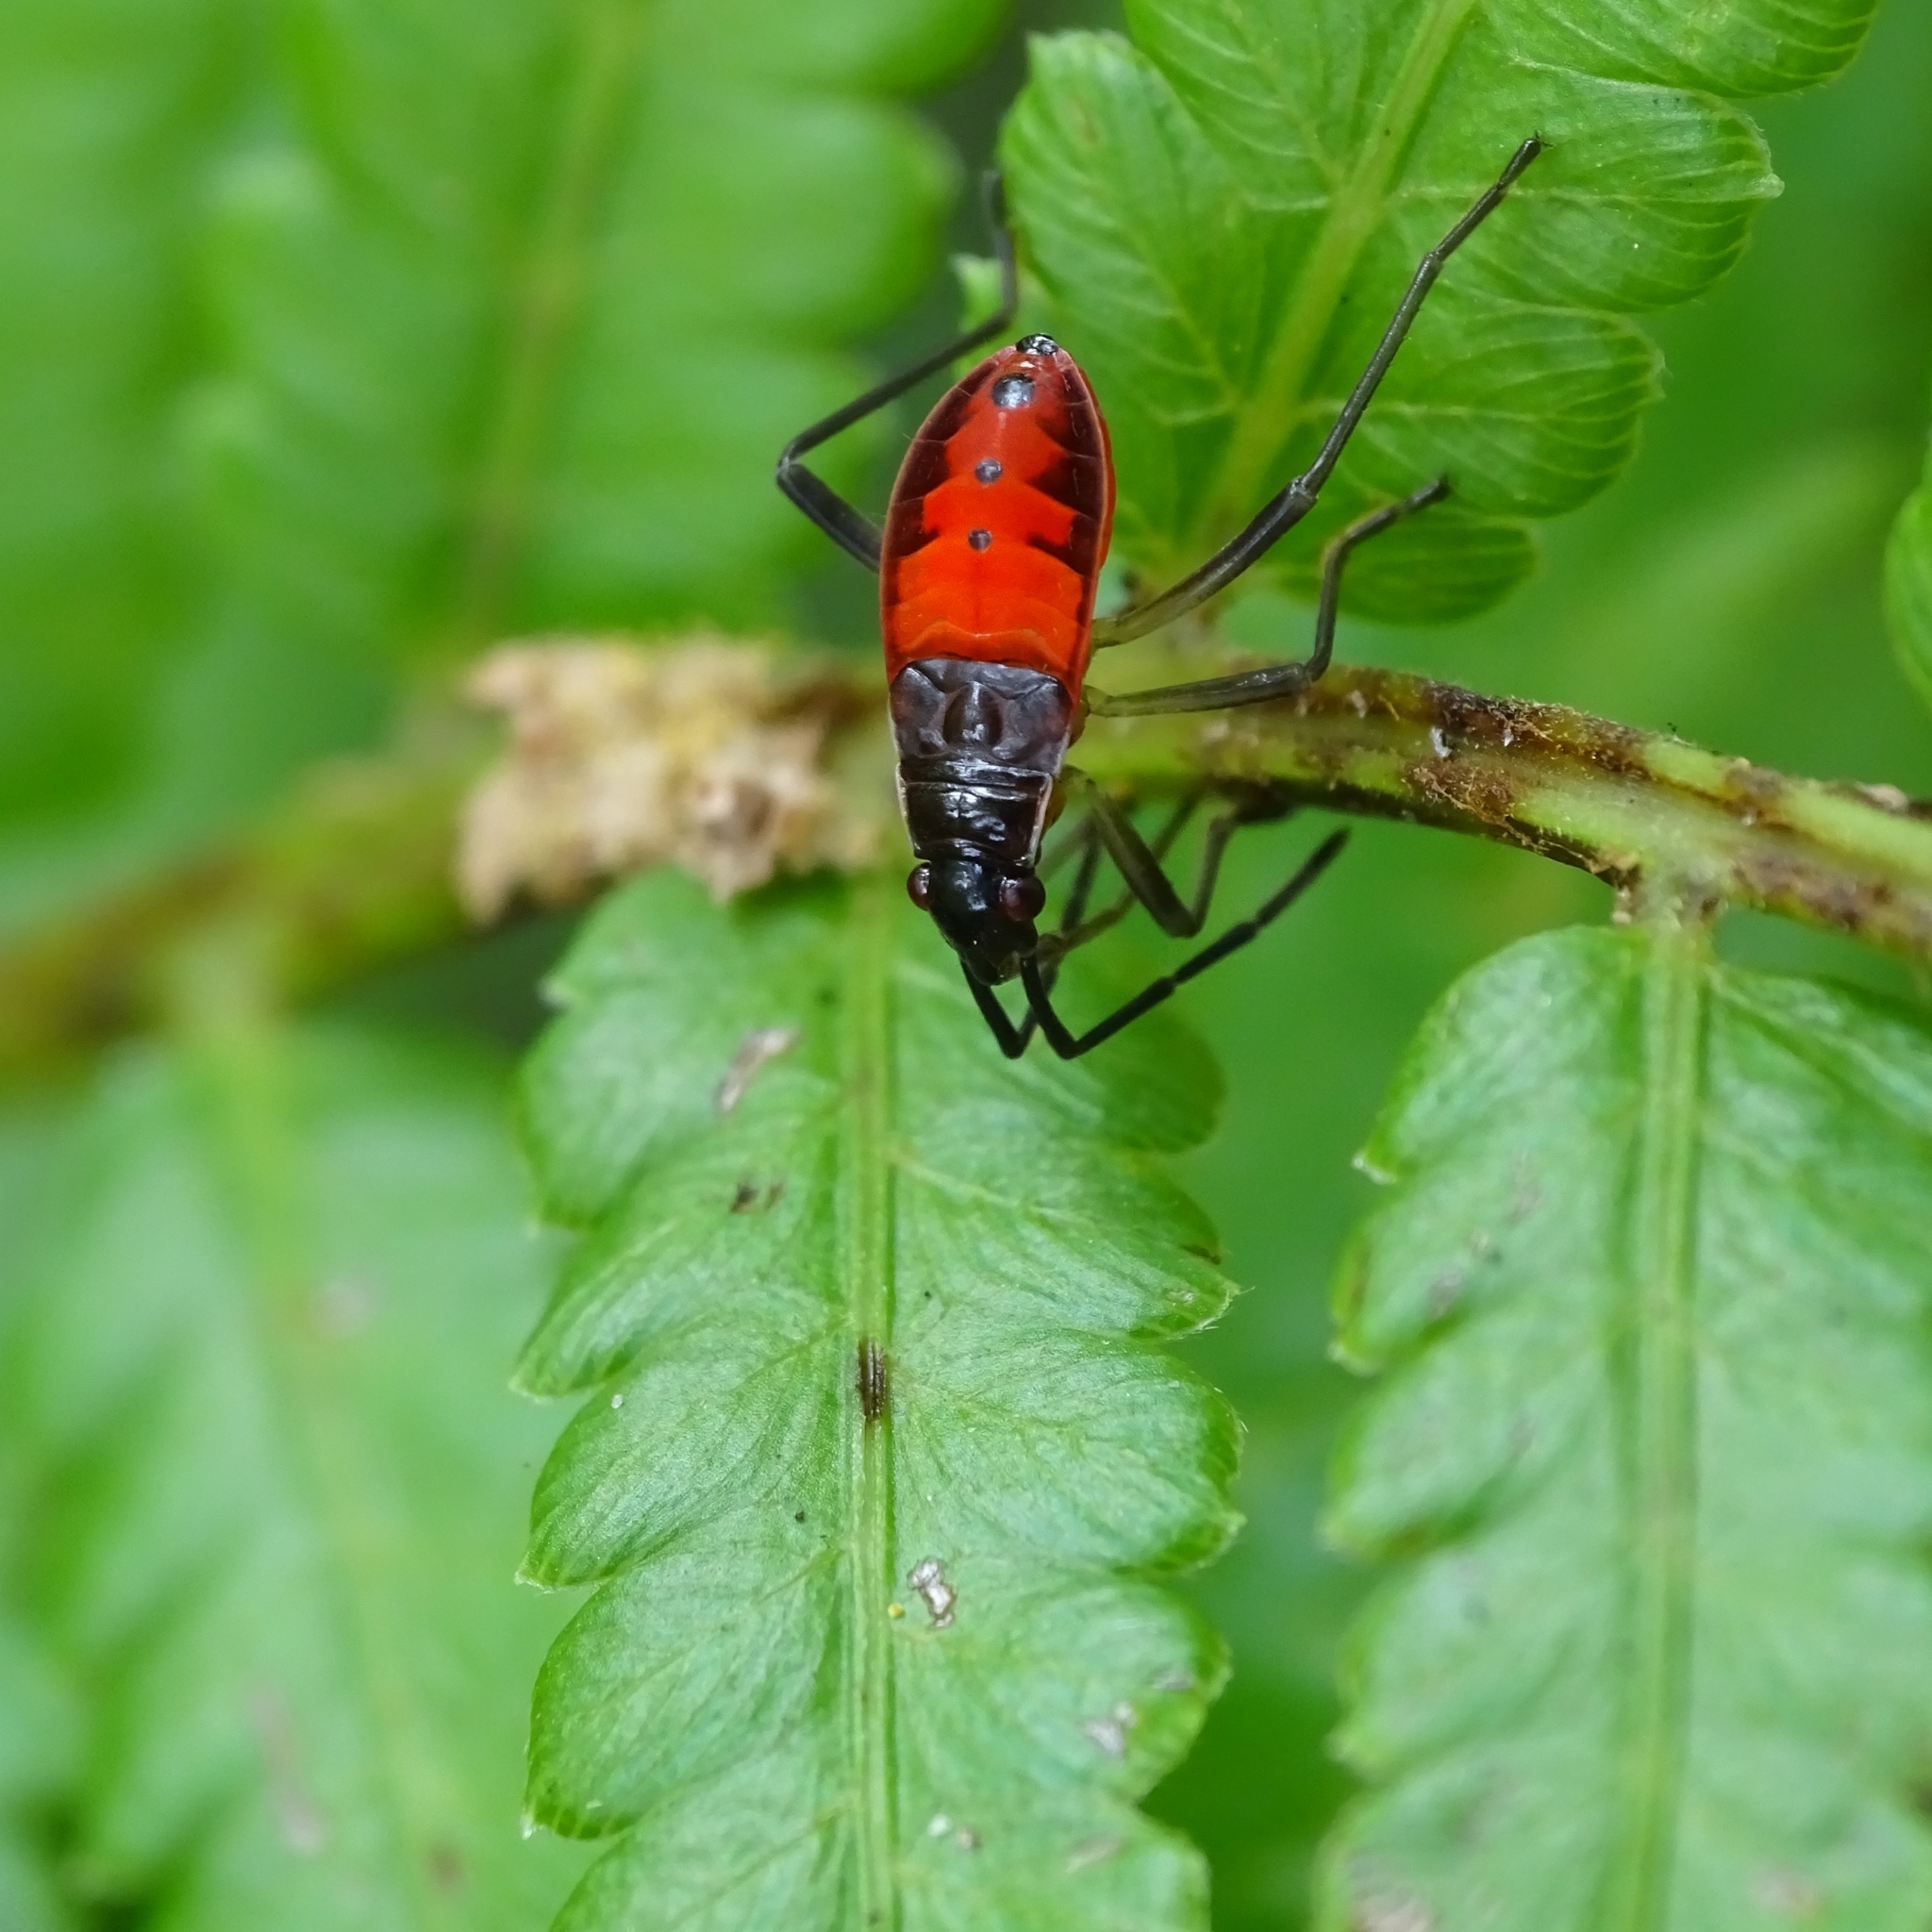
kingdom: Animalia
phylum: Arthropoda
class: Insecta
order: Hemiptera
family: Pyrrhocoridae
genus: Melamphaus
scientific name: Melamphaus
